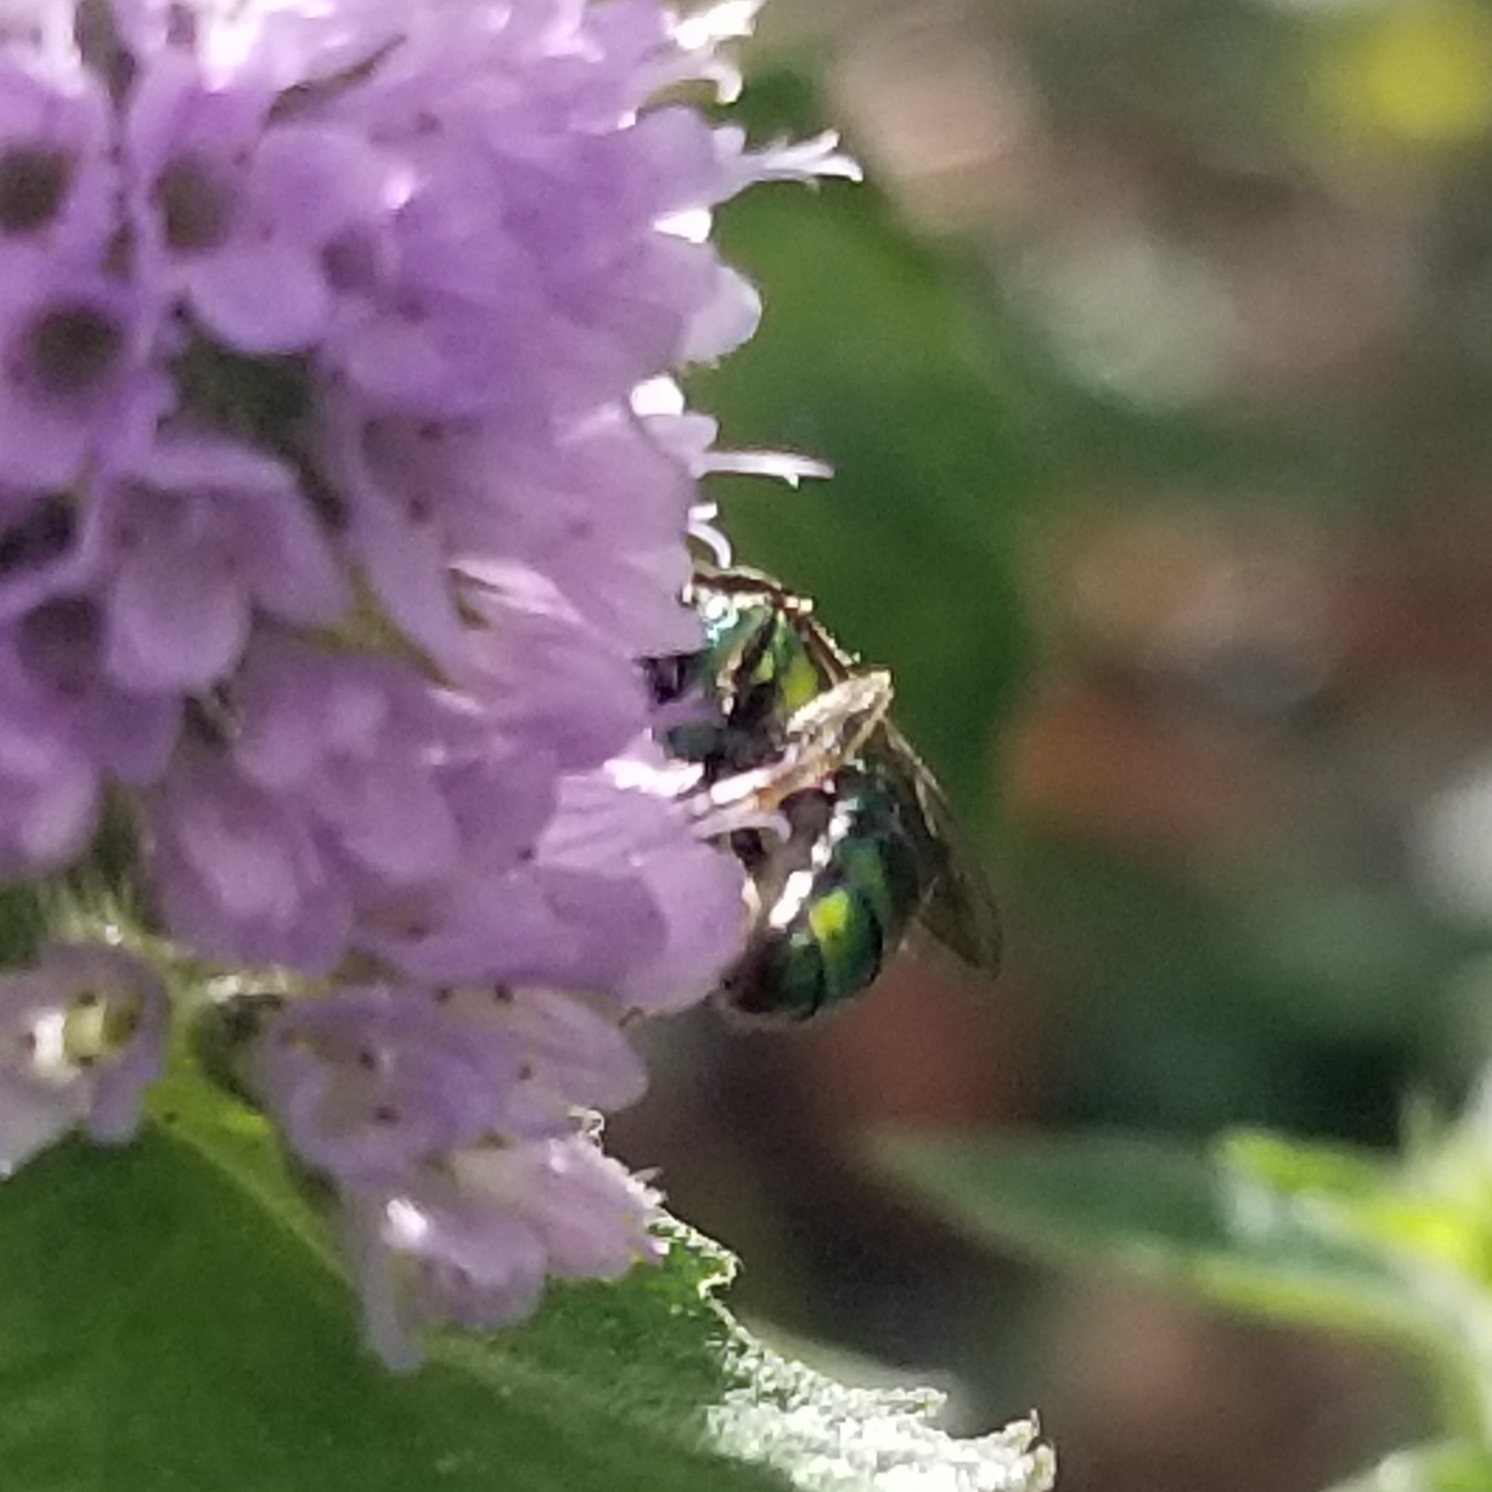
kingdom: Animalia
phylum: Arthropoda
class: Insecta
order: Hymenoptera
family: Halictidae
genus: Augochlora
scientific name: Augochlora pura
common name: Pure green sweat bee
